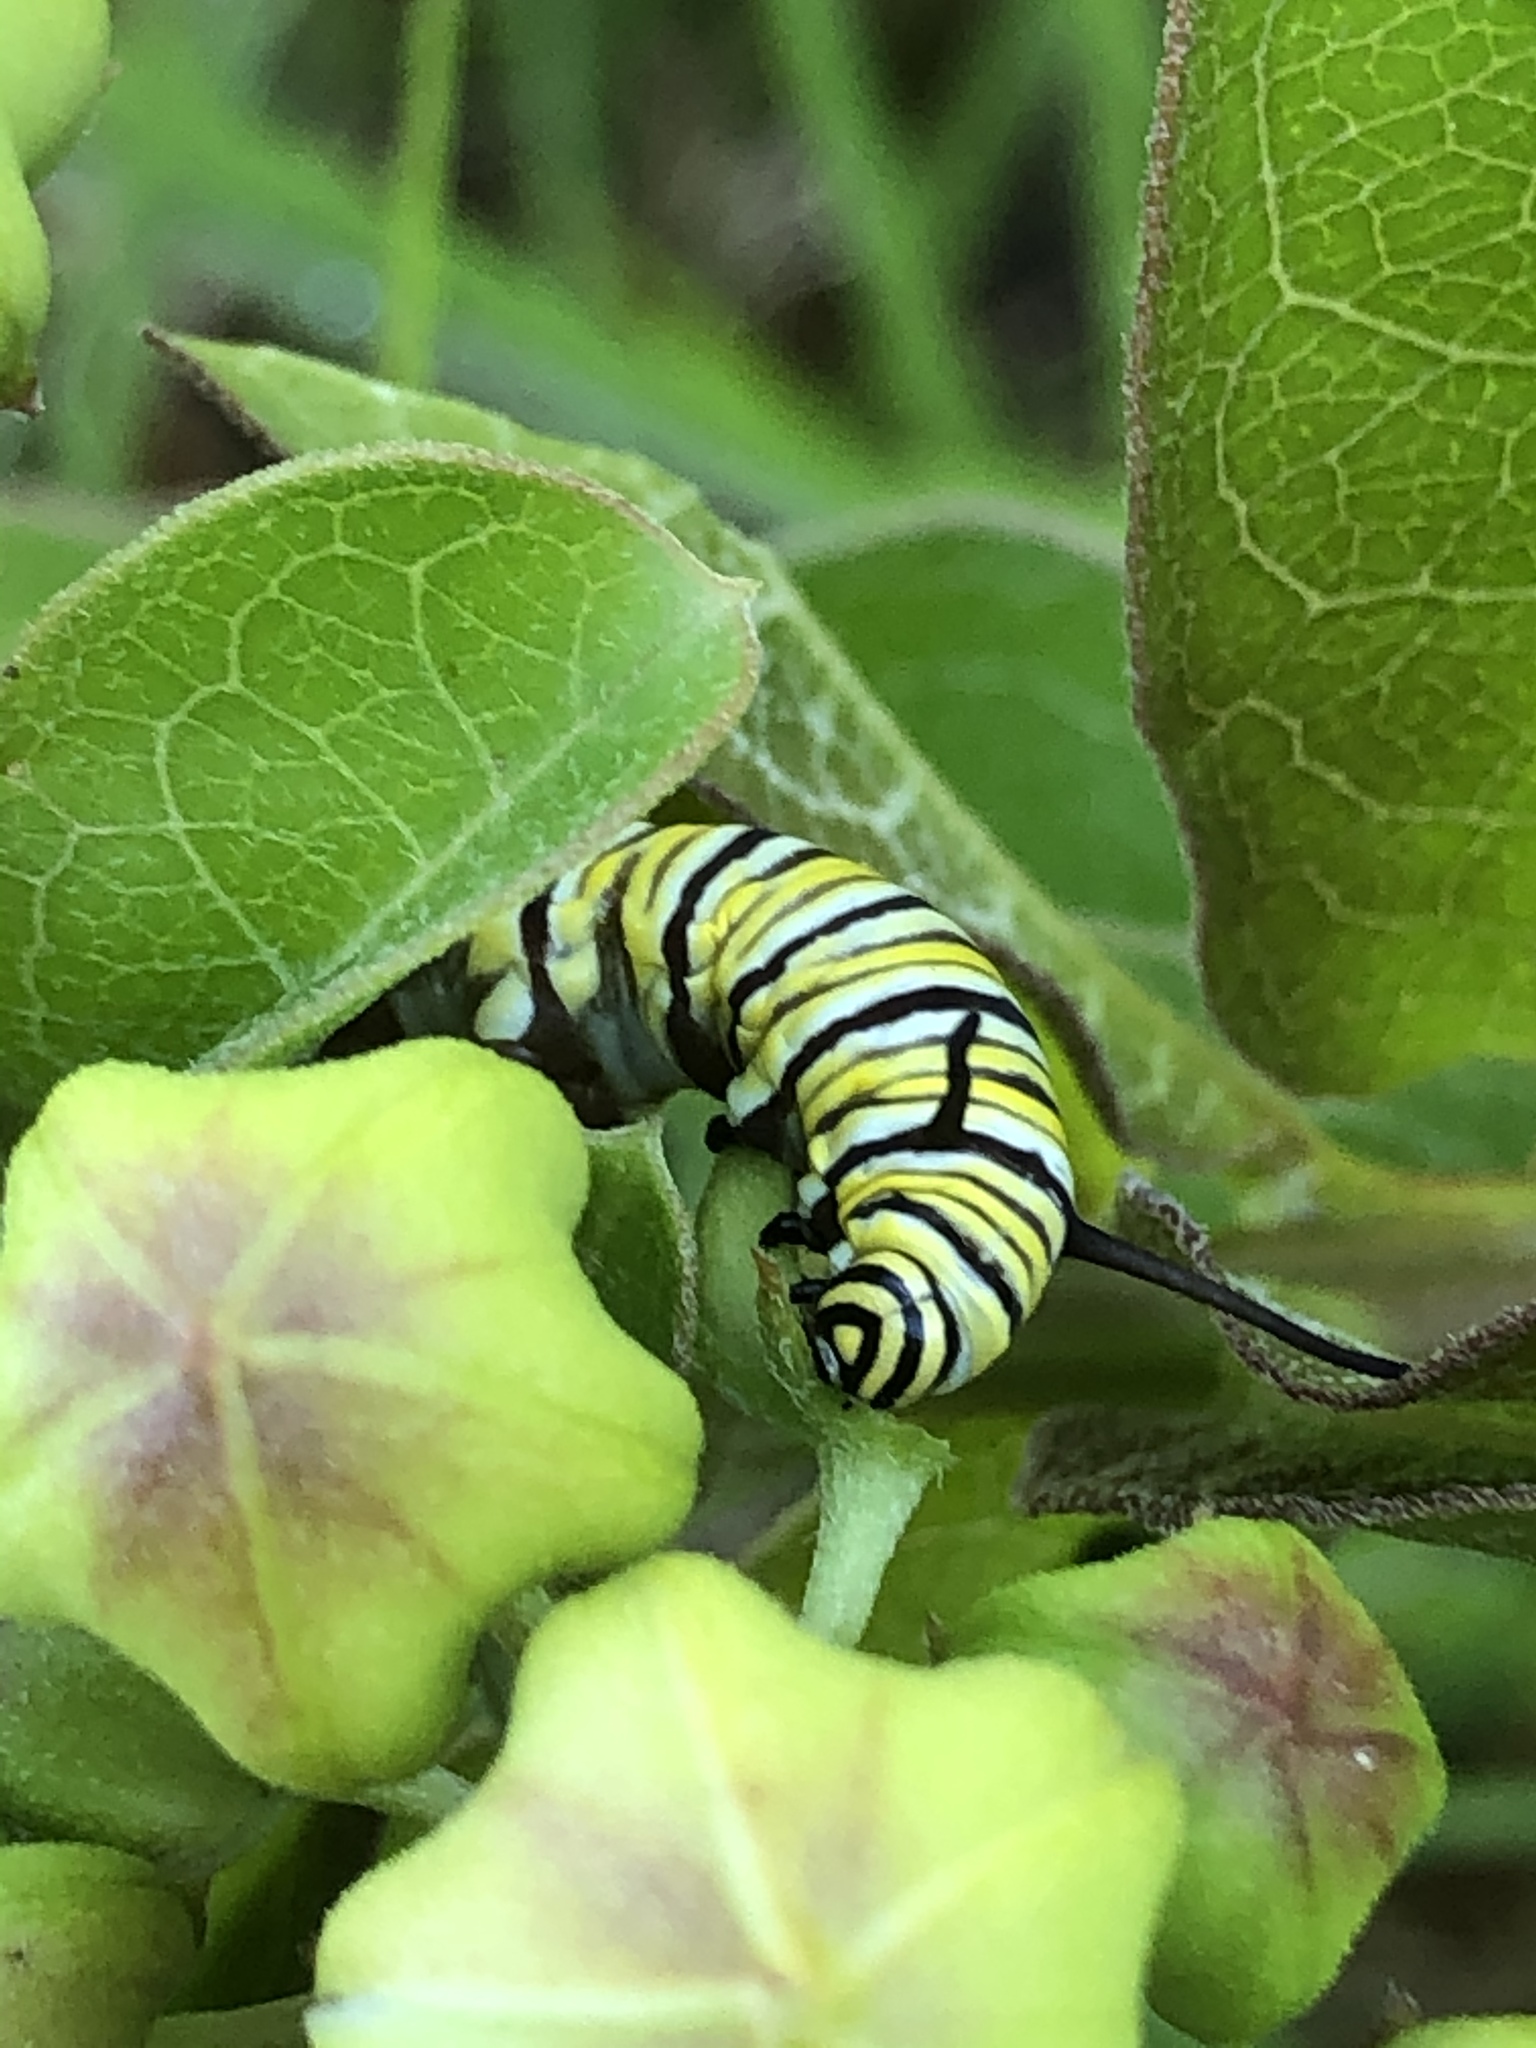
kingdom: Animalia
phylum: Arthropoda
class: Insecta
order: Lepidoptera
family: Nymphalidae
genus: Danaus
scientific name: Danaus plexippus
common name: Monarch
